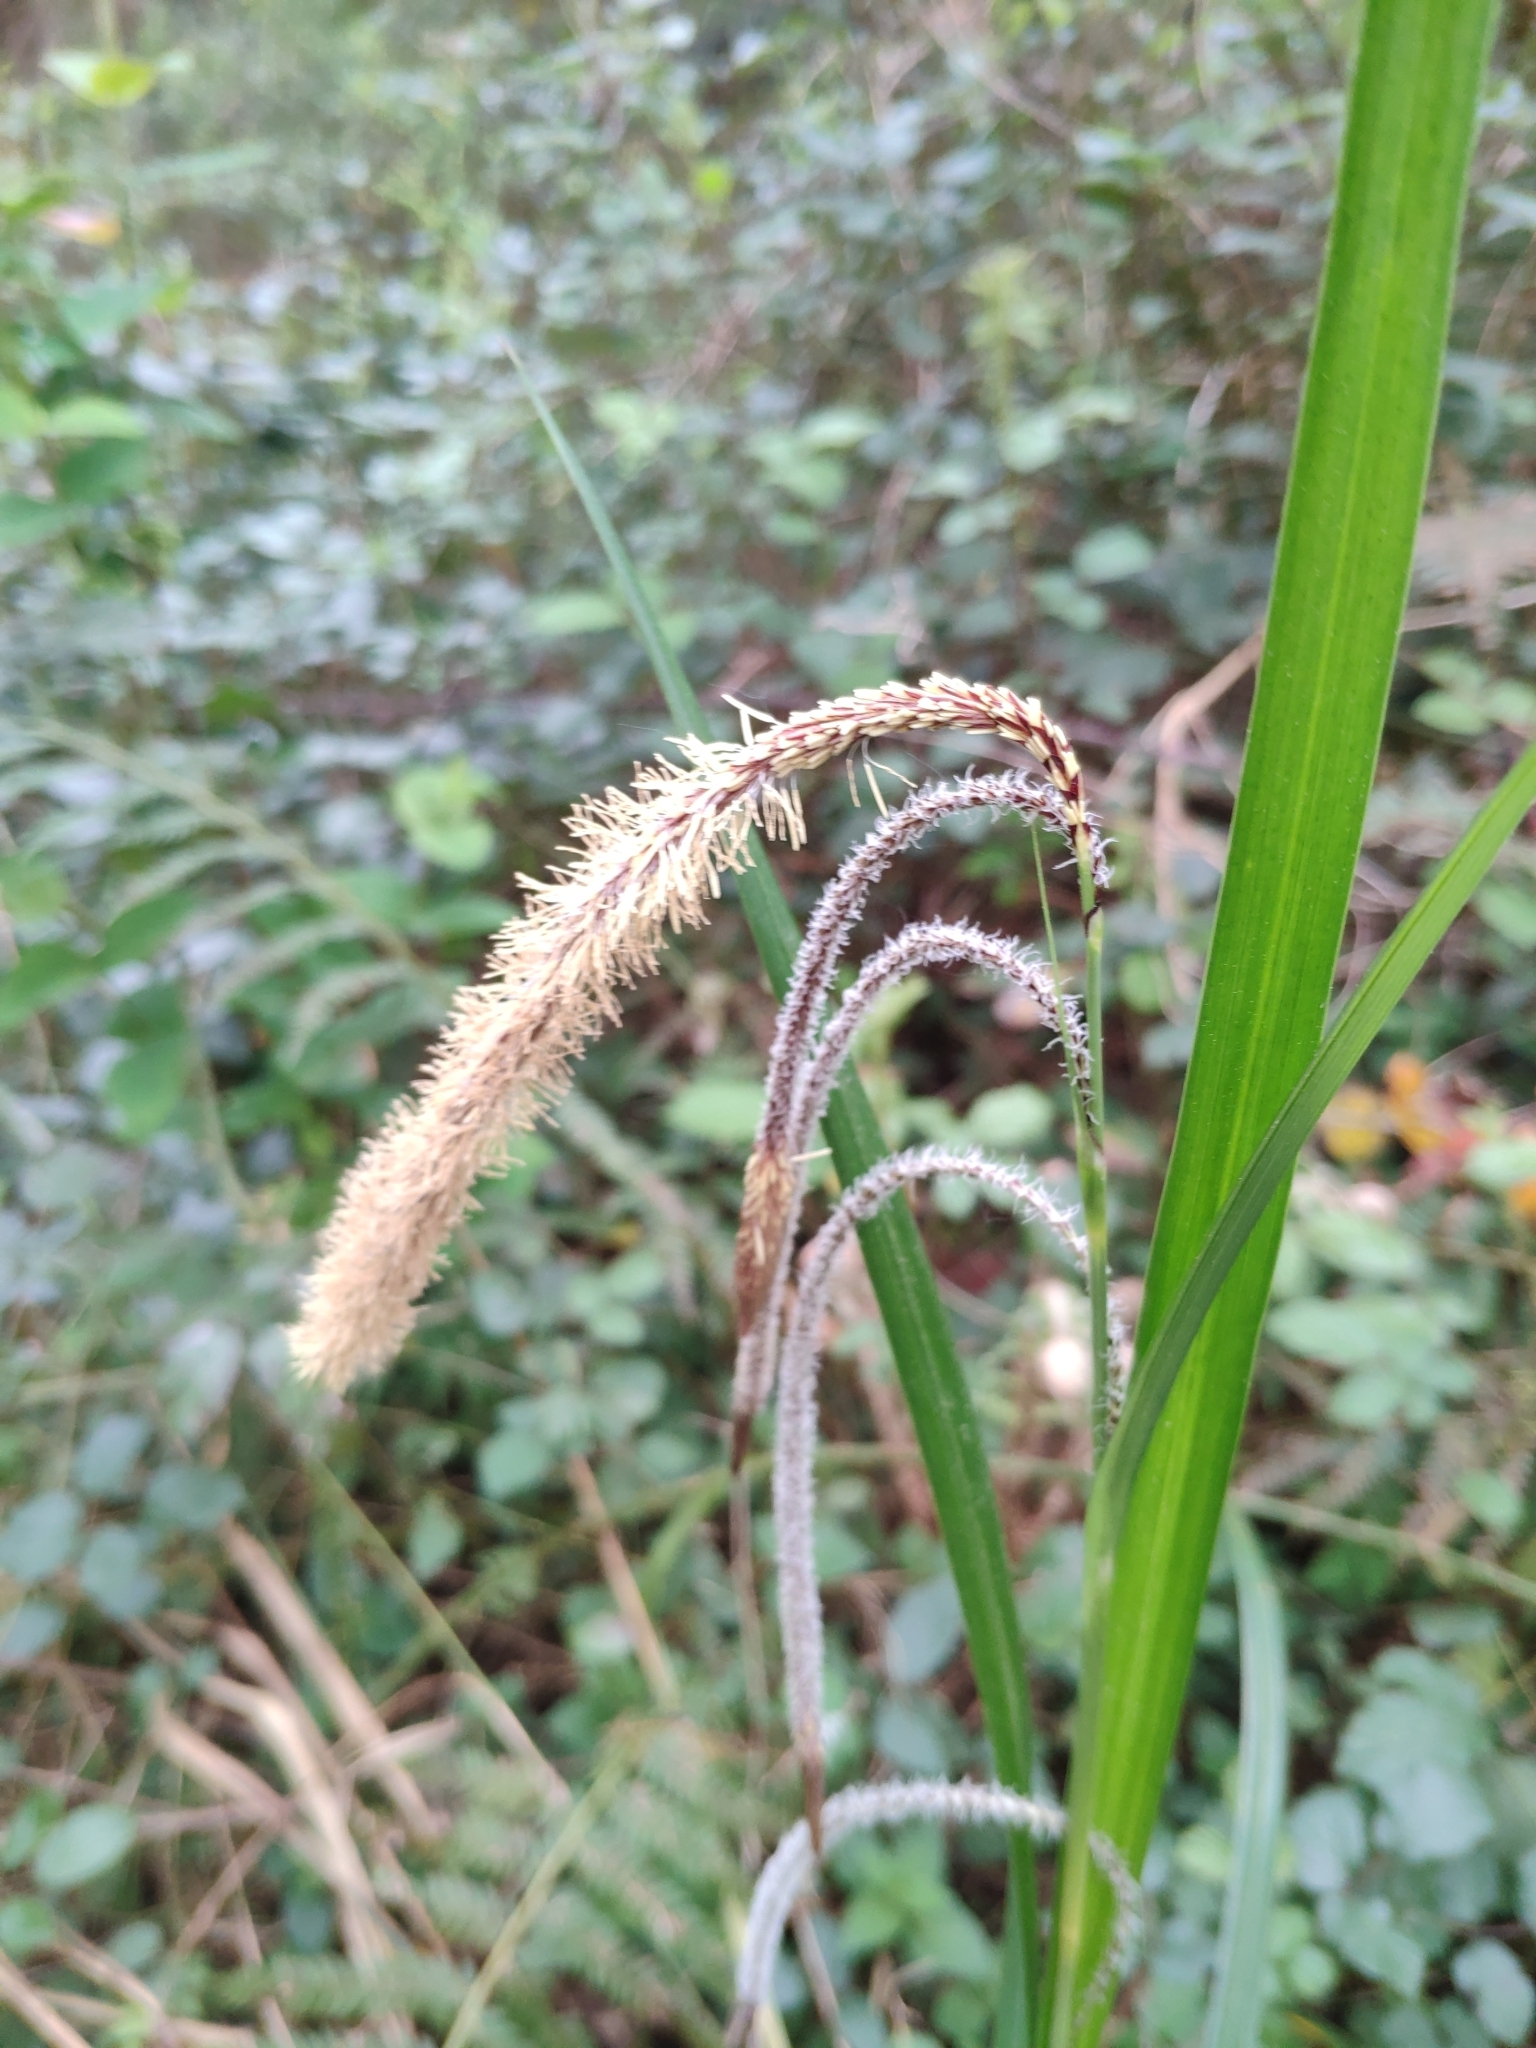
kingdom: Plantae
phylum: Tracheophyta
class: Liliopsida
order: Poales
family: Cyperaceae
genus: Carex
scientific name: Carex pendula
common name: Pendulous sedge
